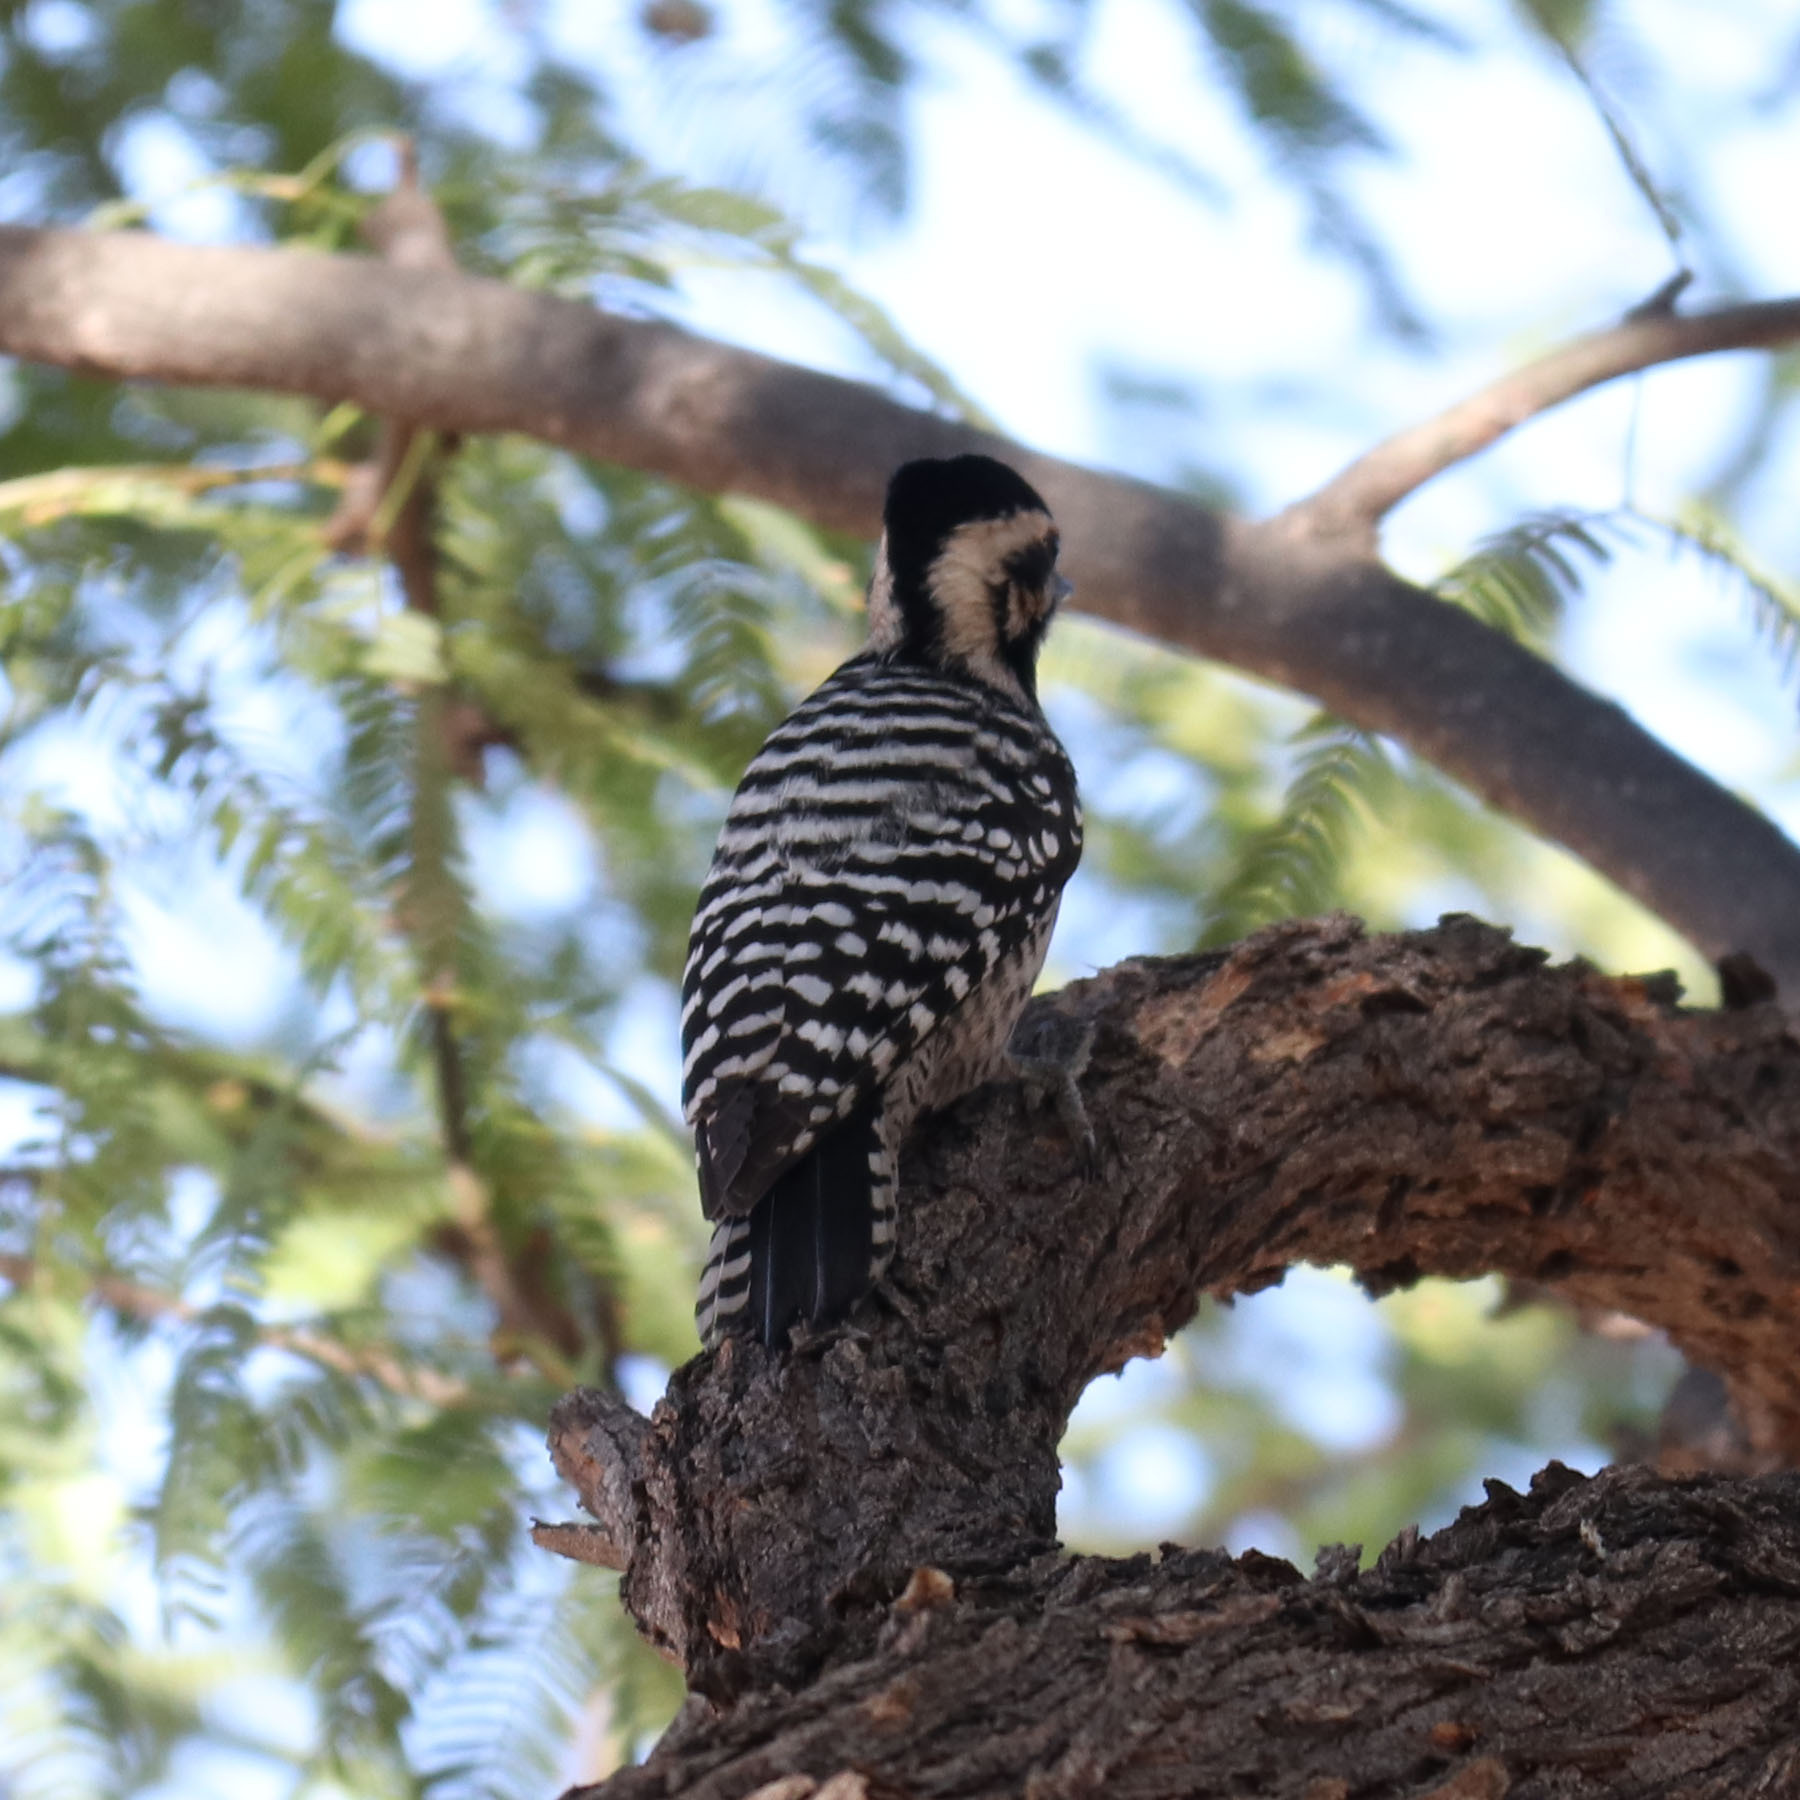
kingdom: Animalia
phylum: Chordata
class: Aves
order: Piciformes
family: Picidae
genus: Dryobates
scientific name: Dryobates scalaris
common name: Ladder-backed woodpecker
